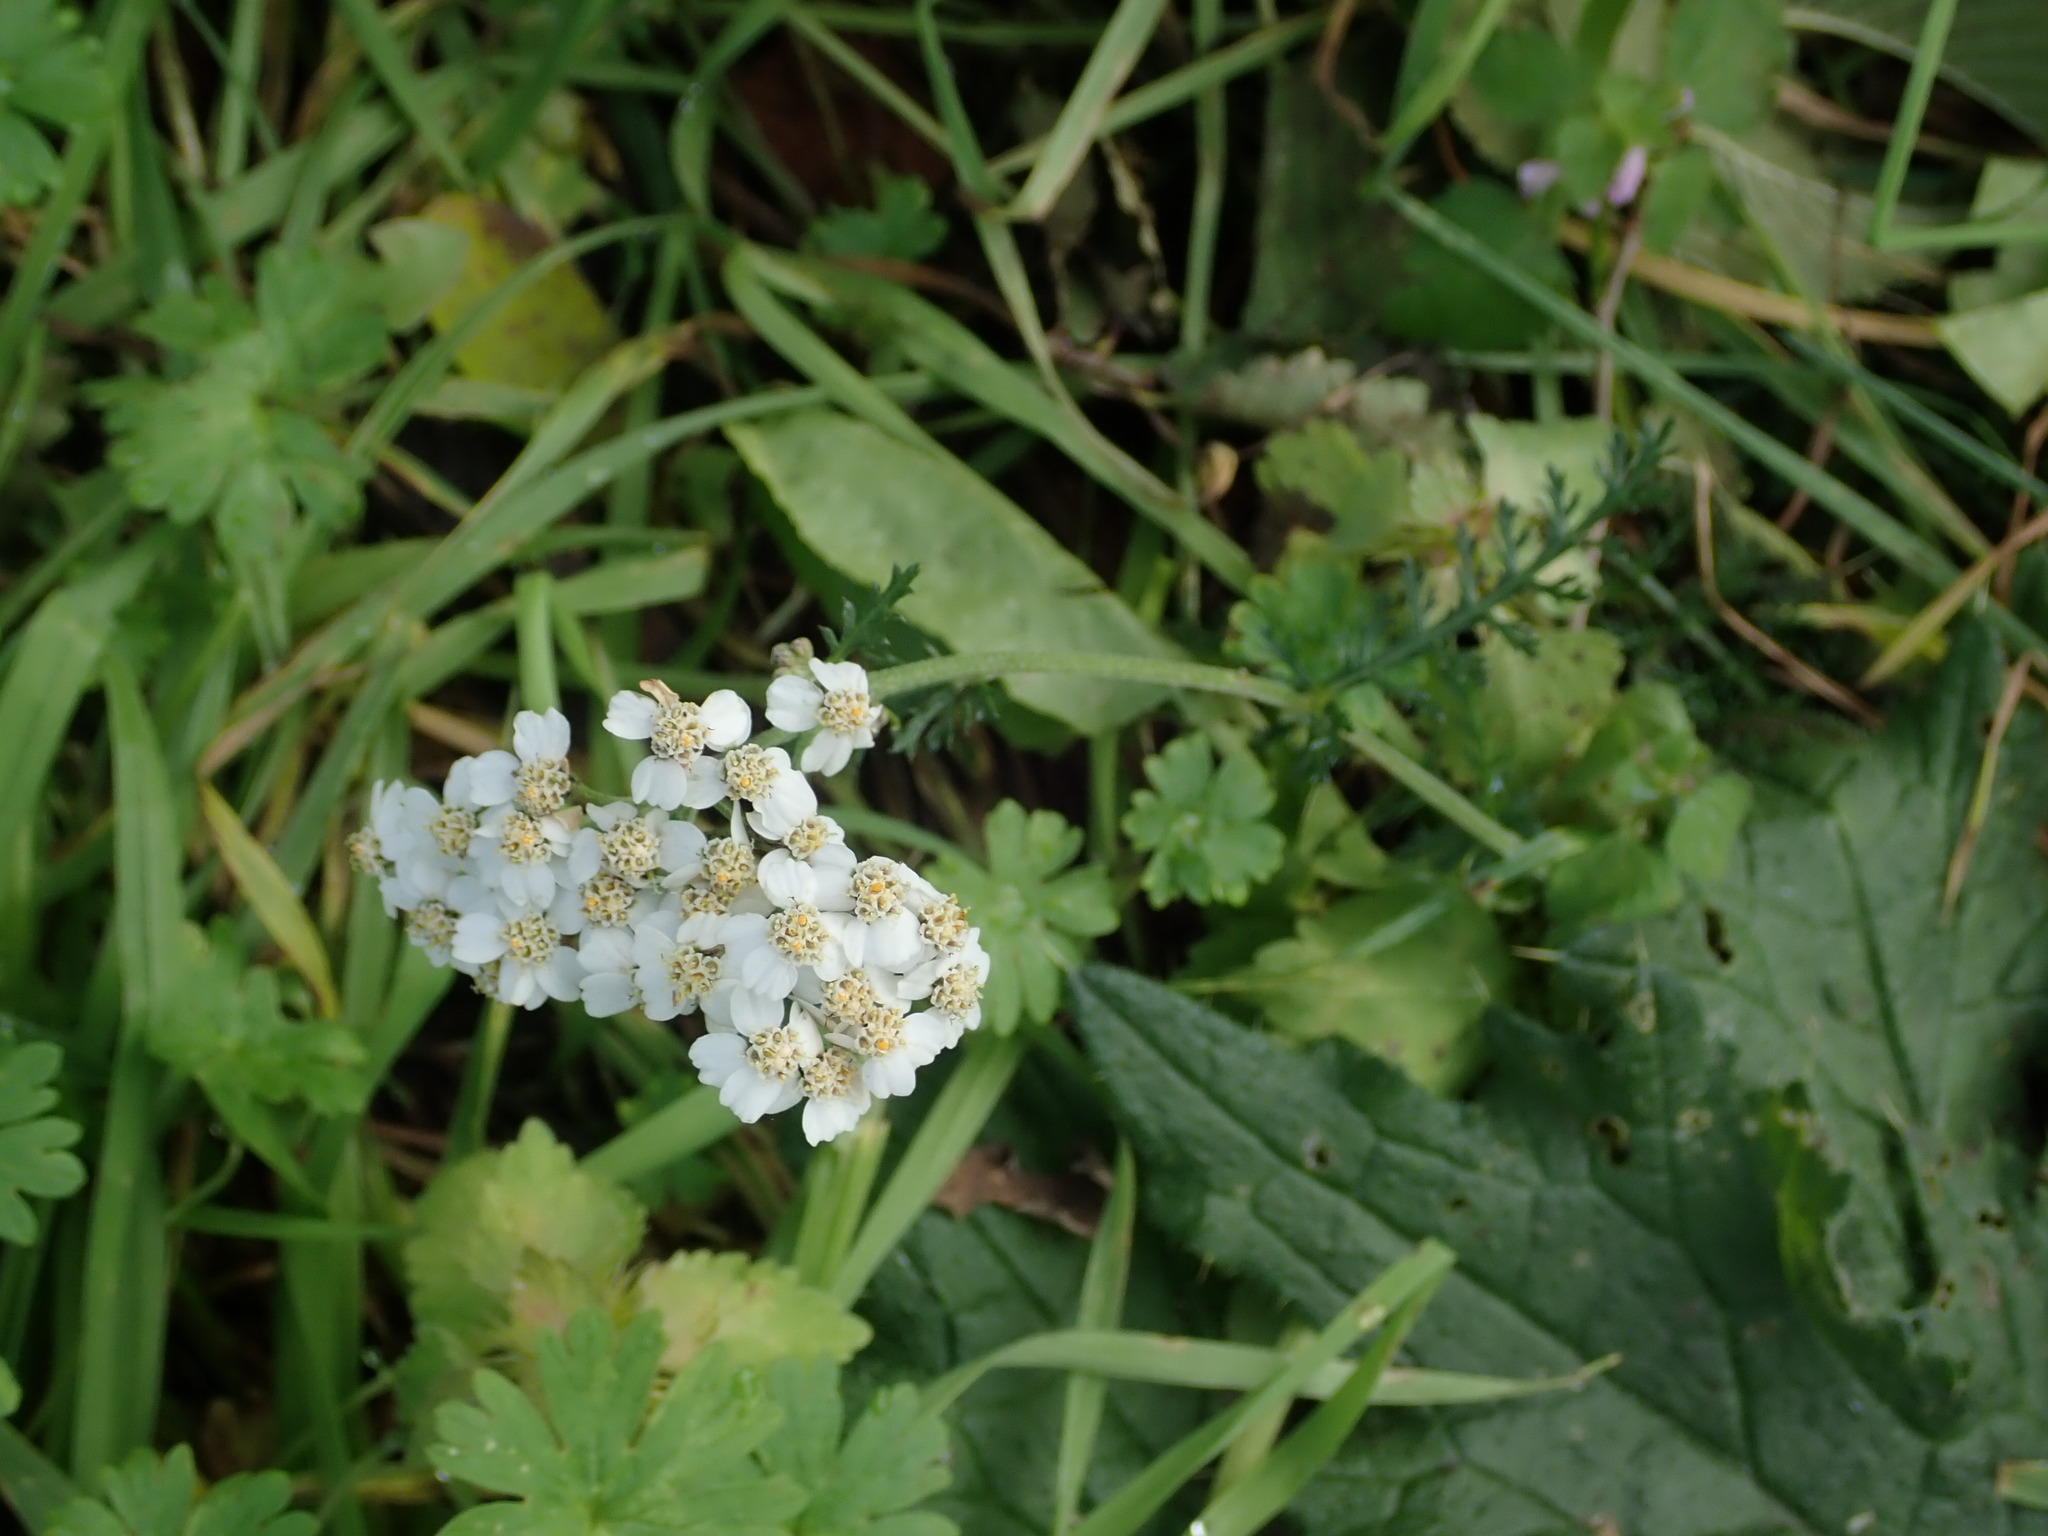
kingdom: Plantae
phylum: Tracheophyta
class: Magnoliopsida
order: Asterales
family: Asteraceae
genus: Achillea
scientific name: Achillea millefolium
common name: Yarrow
